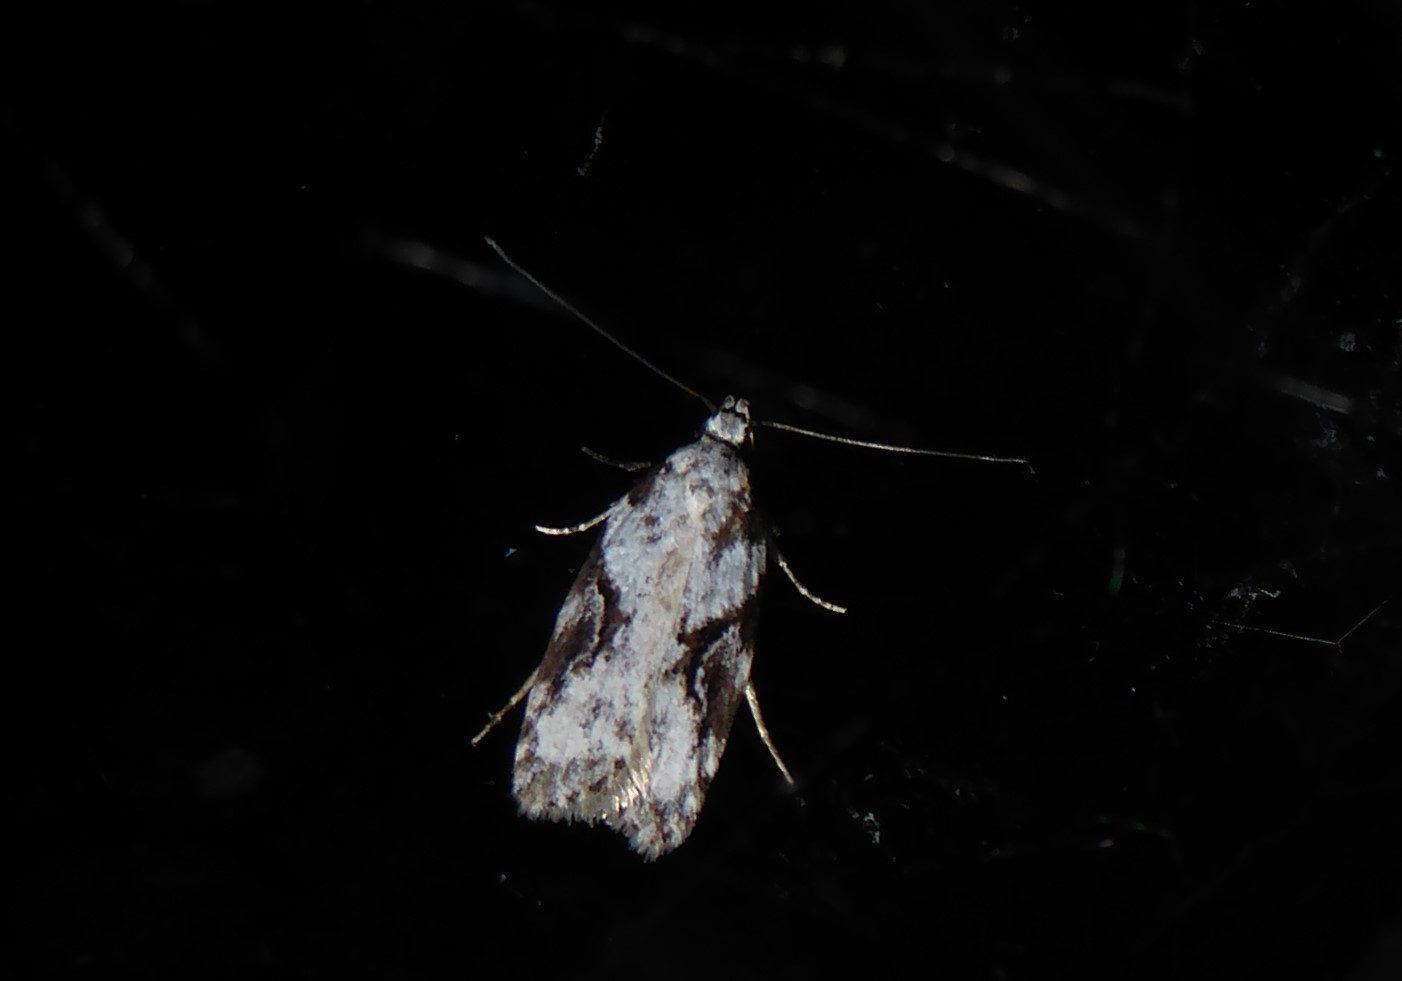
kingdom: Animalia
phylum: Arthropoda
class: Insecta
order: Lepidoptera
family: Oecophoridae
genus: Izatha
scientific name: Izatha mesoschista
